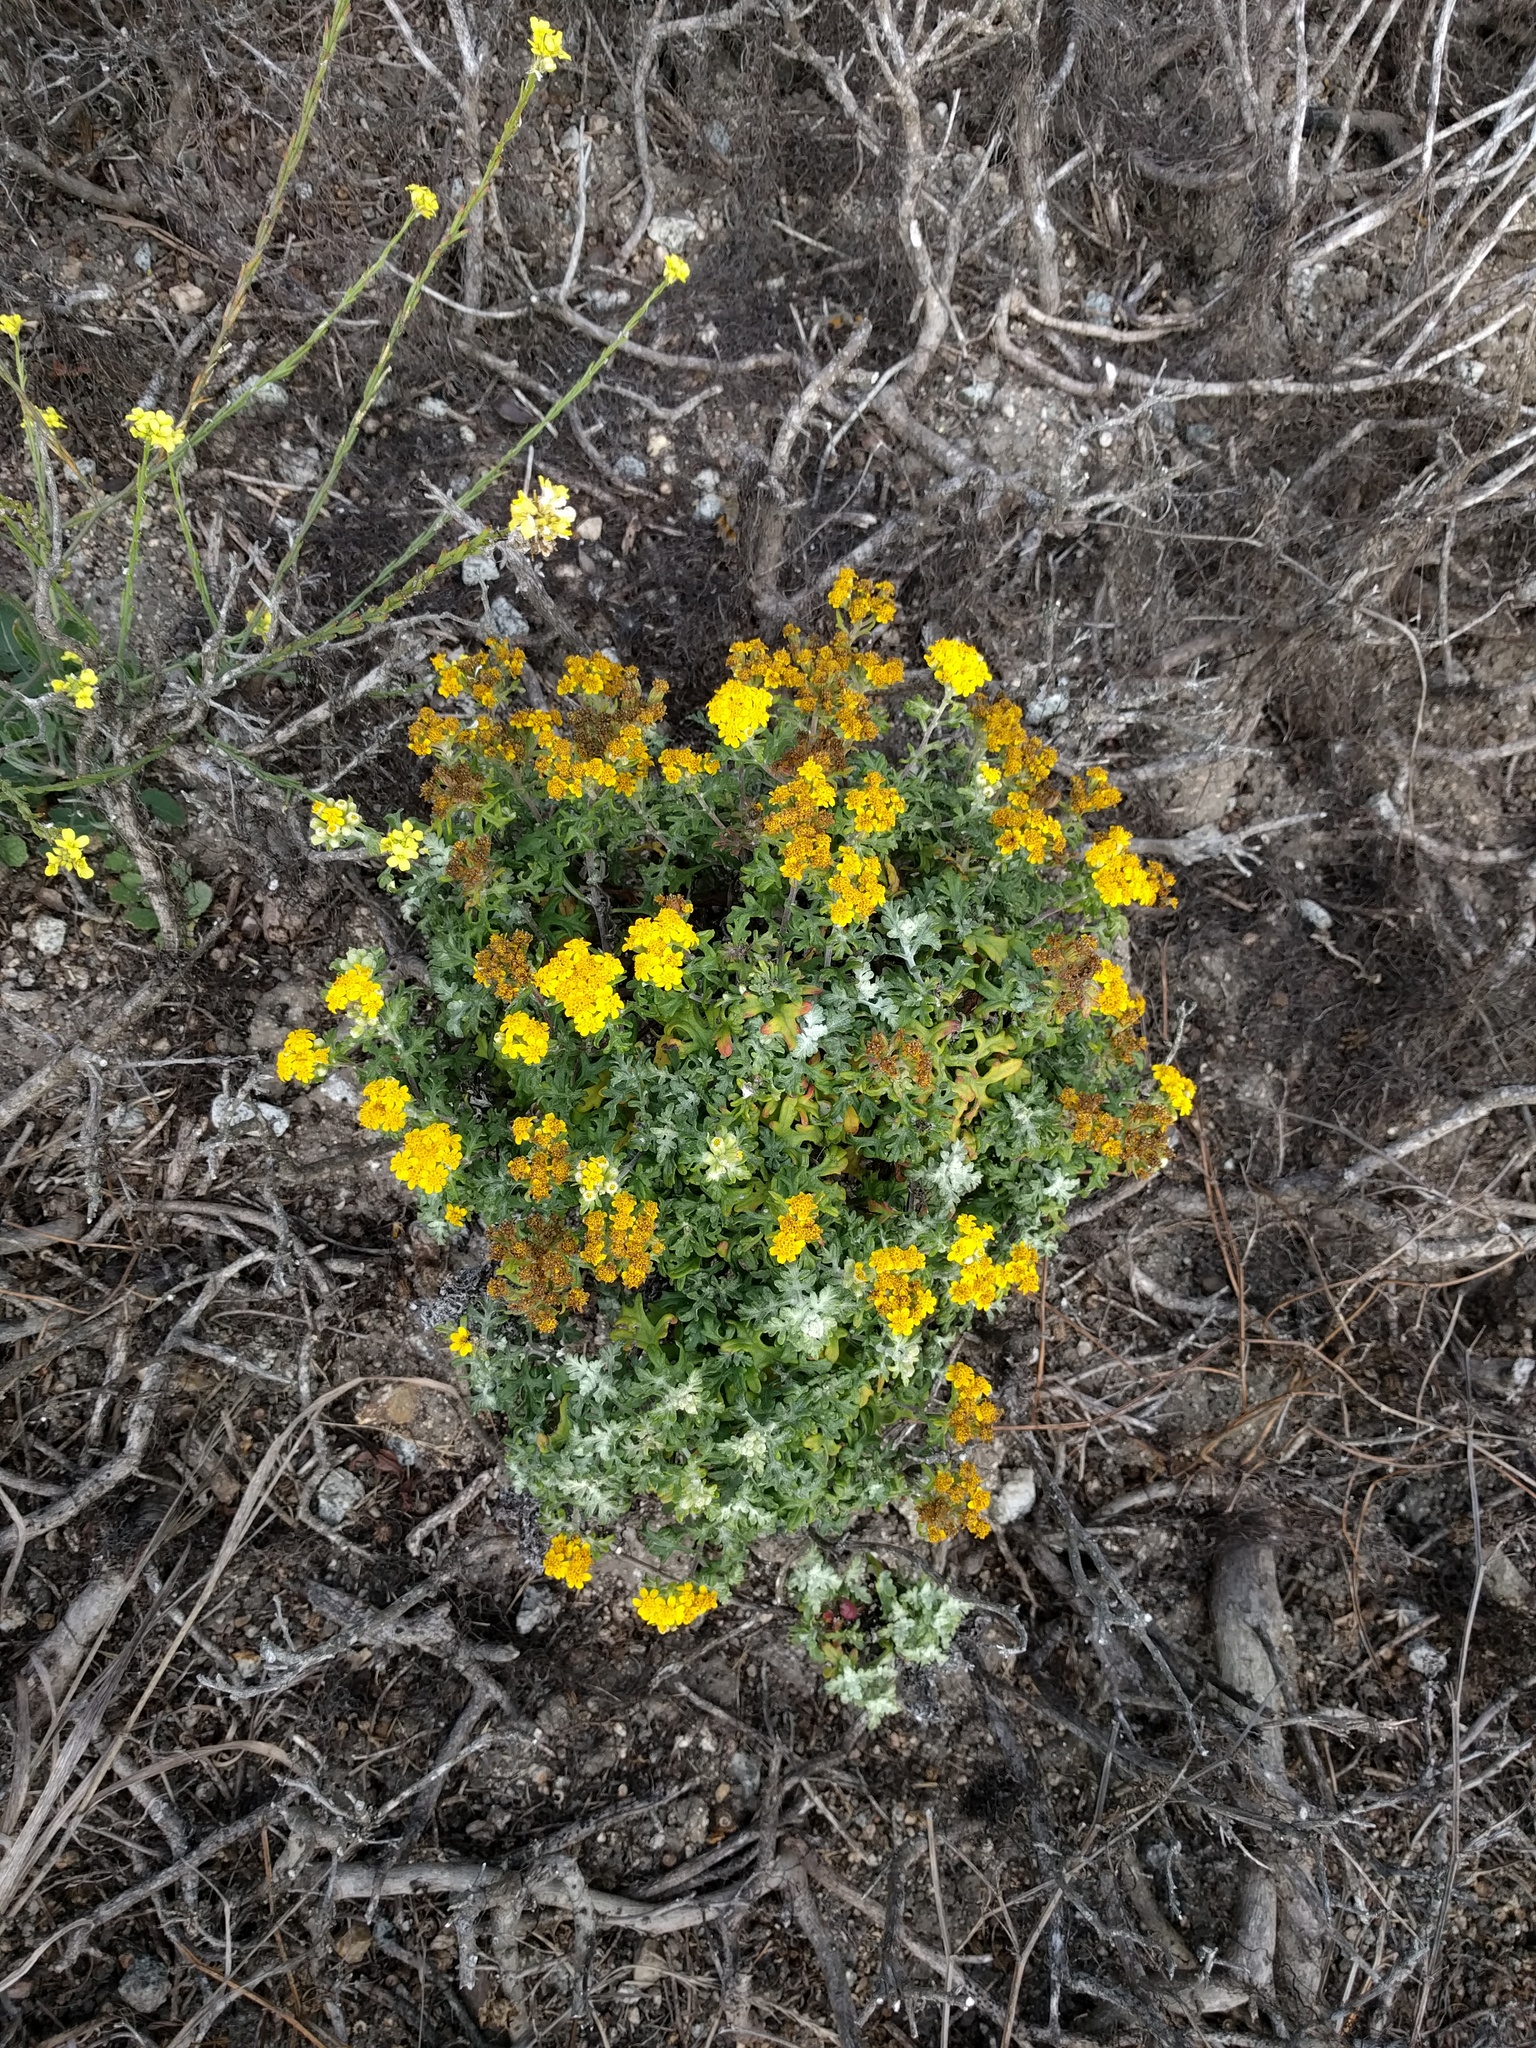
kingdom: Plantae
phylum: Tracheophyta
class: Magnoliopsida
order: Asterales
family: Asteraceae
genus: Eriophyllum
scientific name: Eriophyllum staechadifolium
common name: Lizardtail
